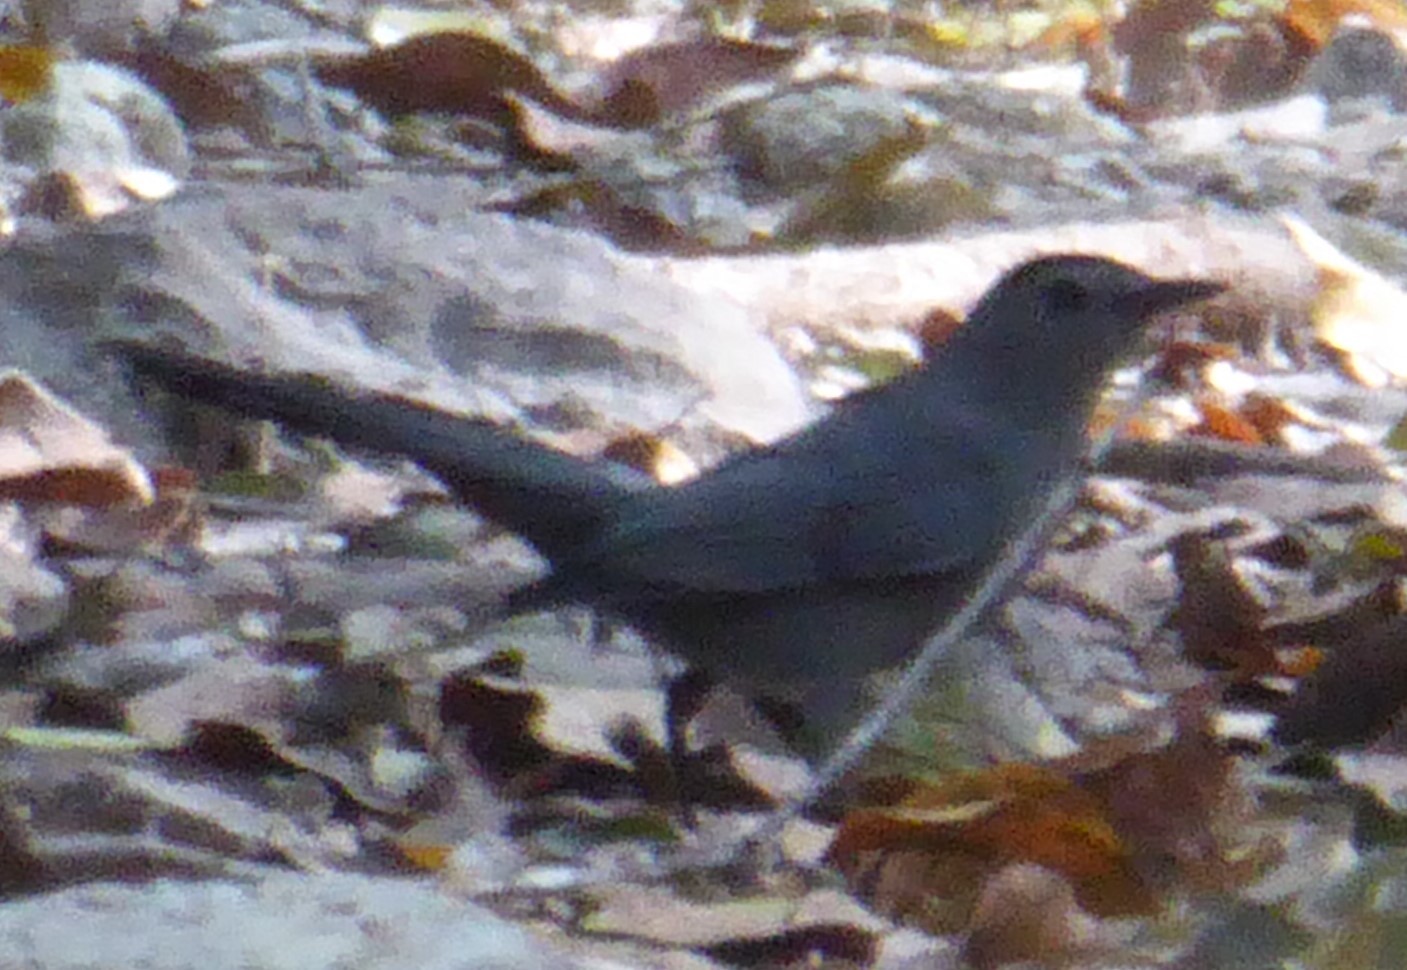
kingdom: Animalia
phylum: Chordata
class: Aves
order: Passeriformes
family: Mimidae
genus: Dumetella
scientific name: Dumetella carolinensis
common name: Gray catbird
